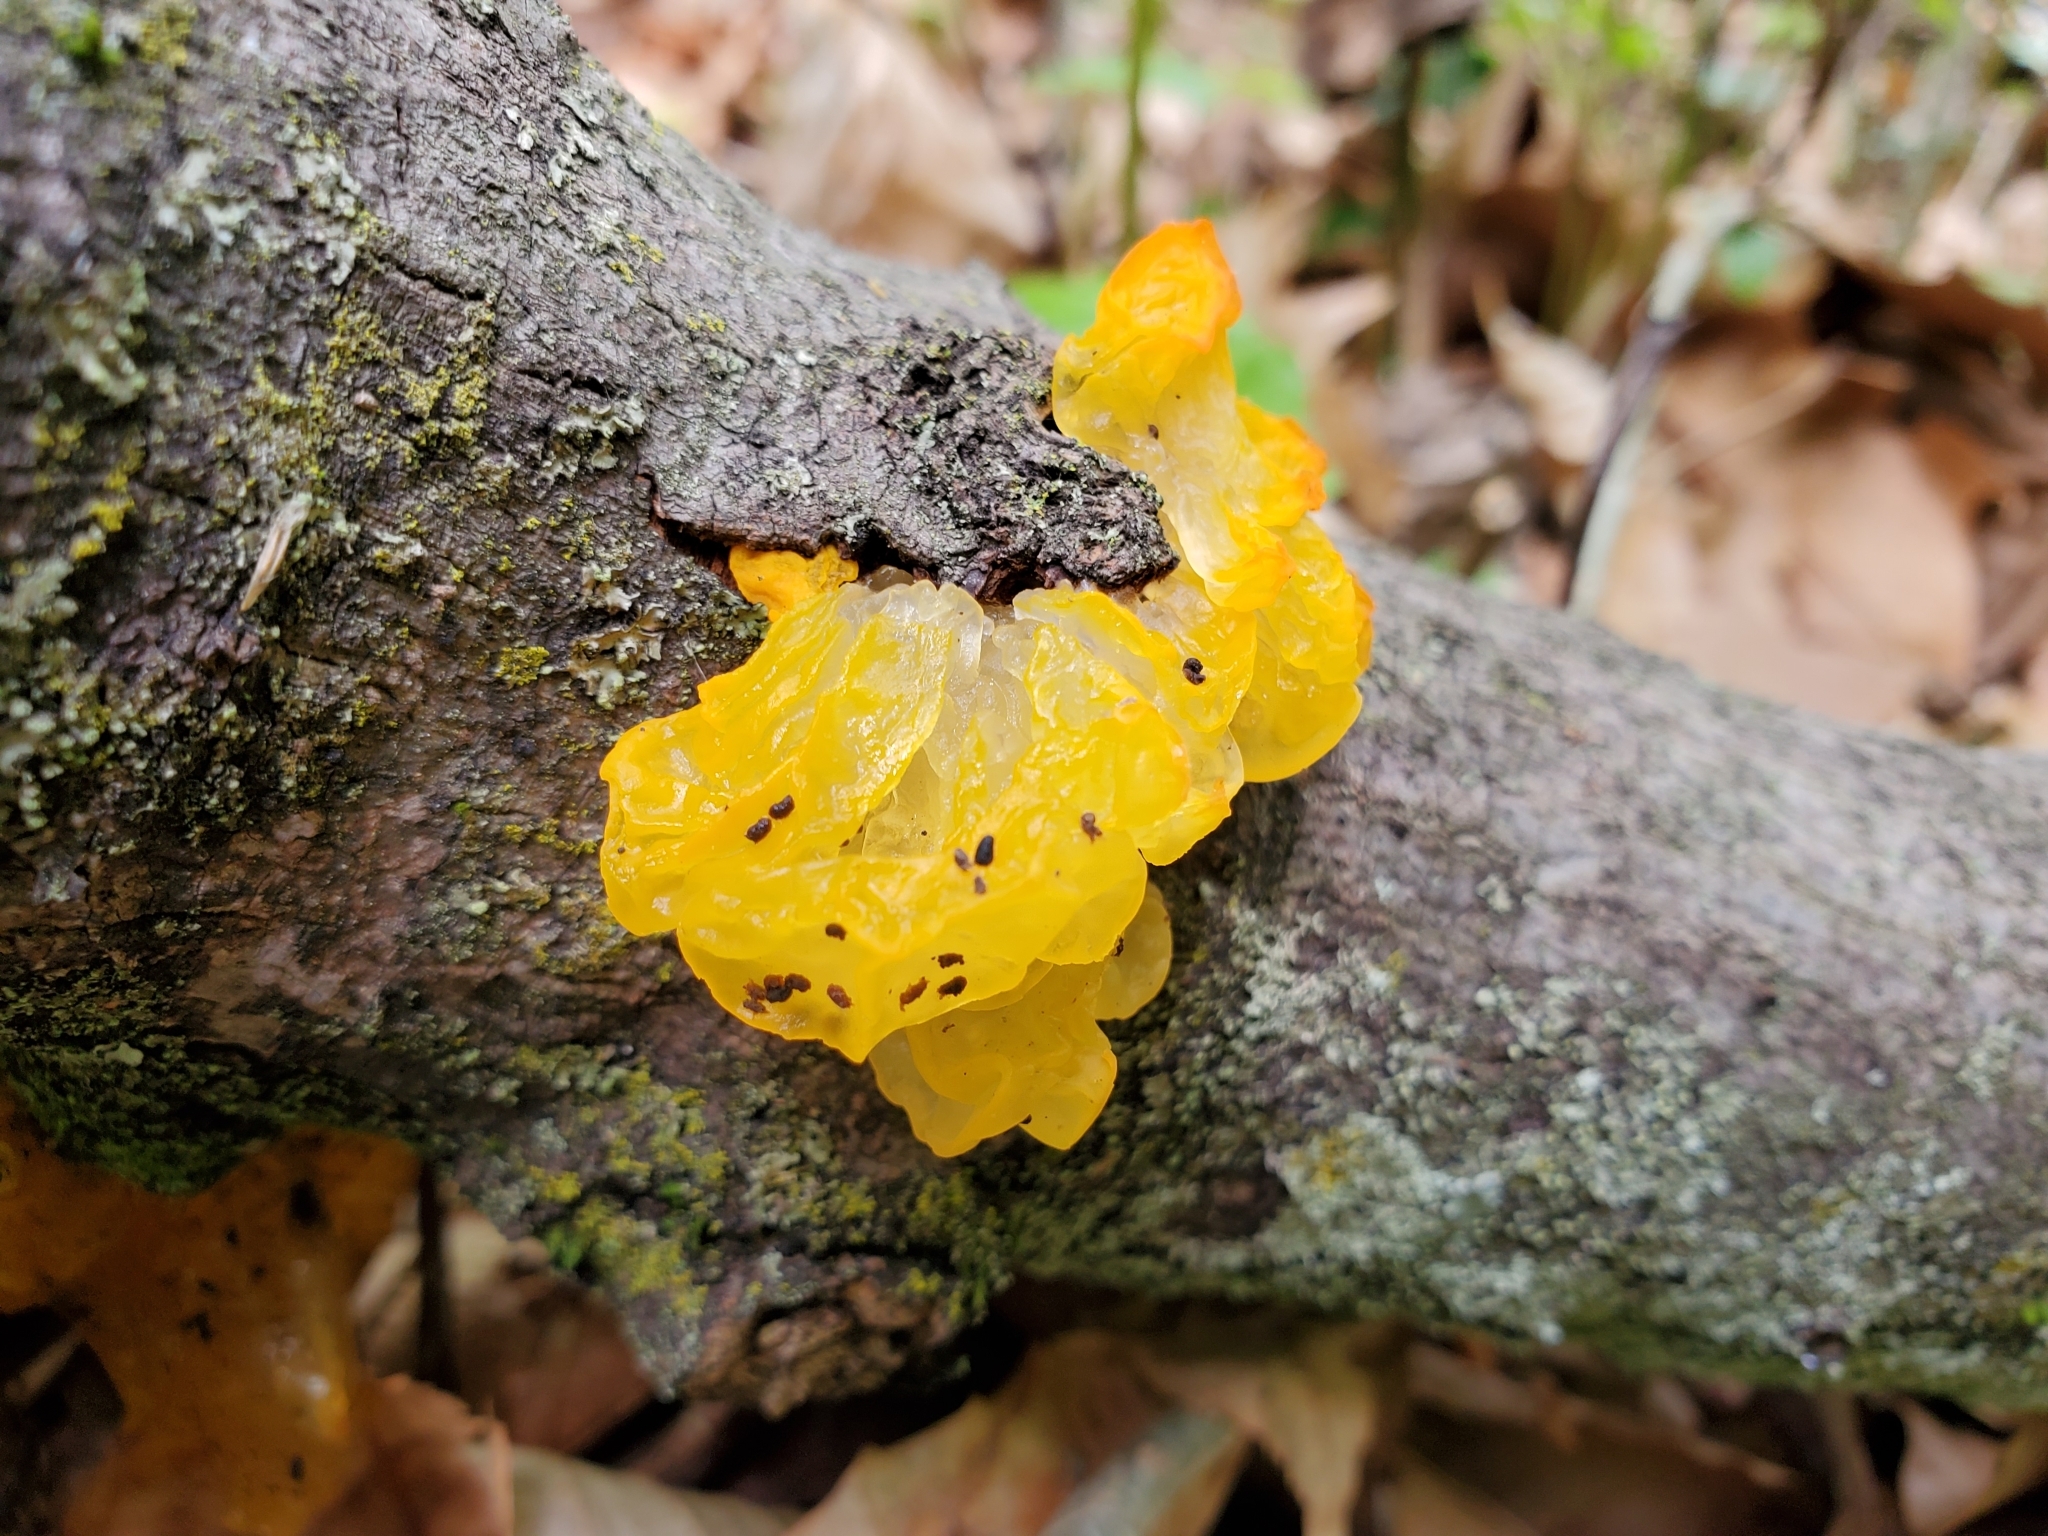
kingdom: Fungi
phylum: Basidiomycota
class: Tremellomycetes
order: Tremellales
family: Tremellaceae
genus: Tremella
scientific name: Tremella mesenterica
